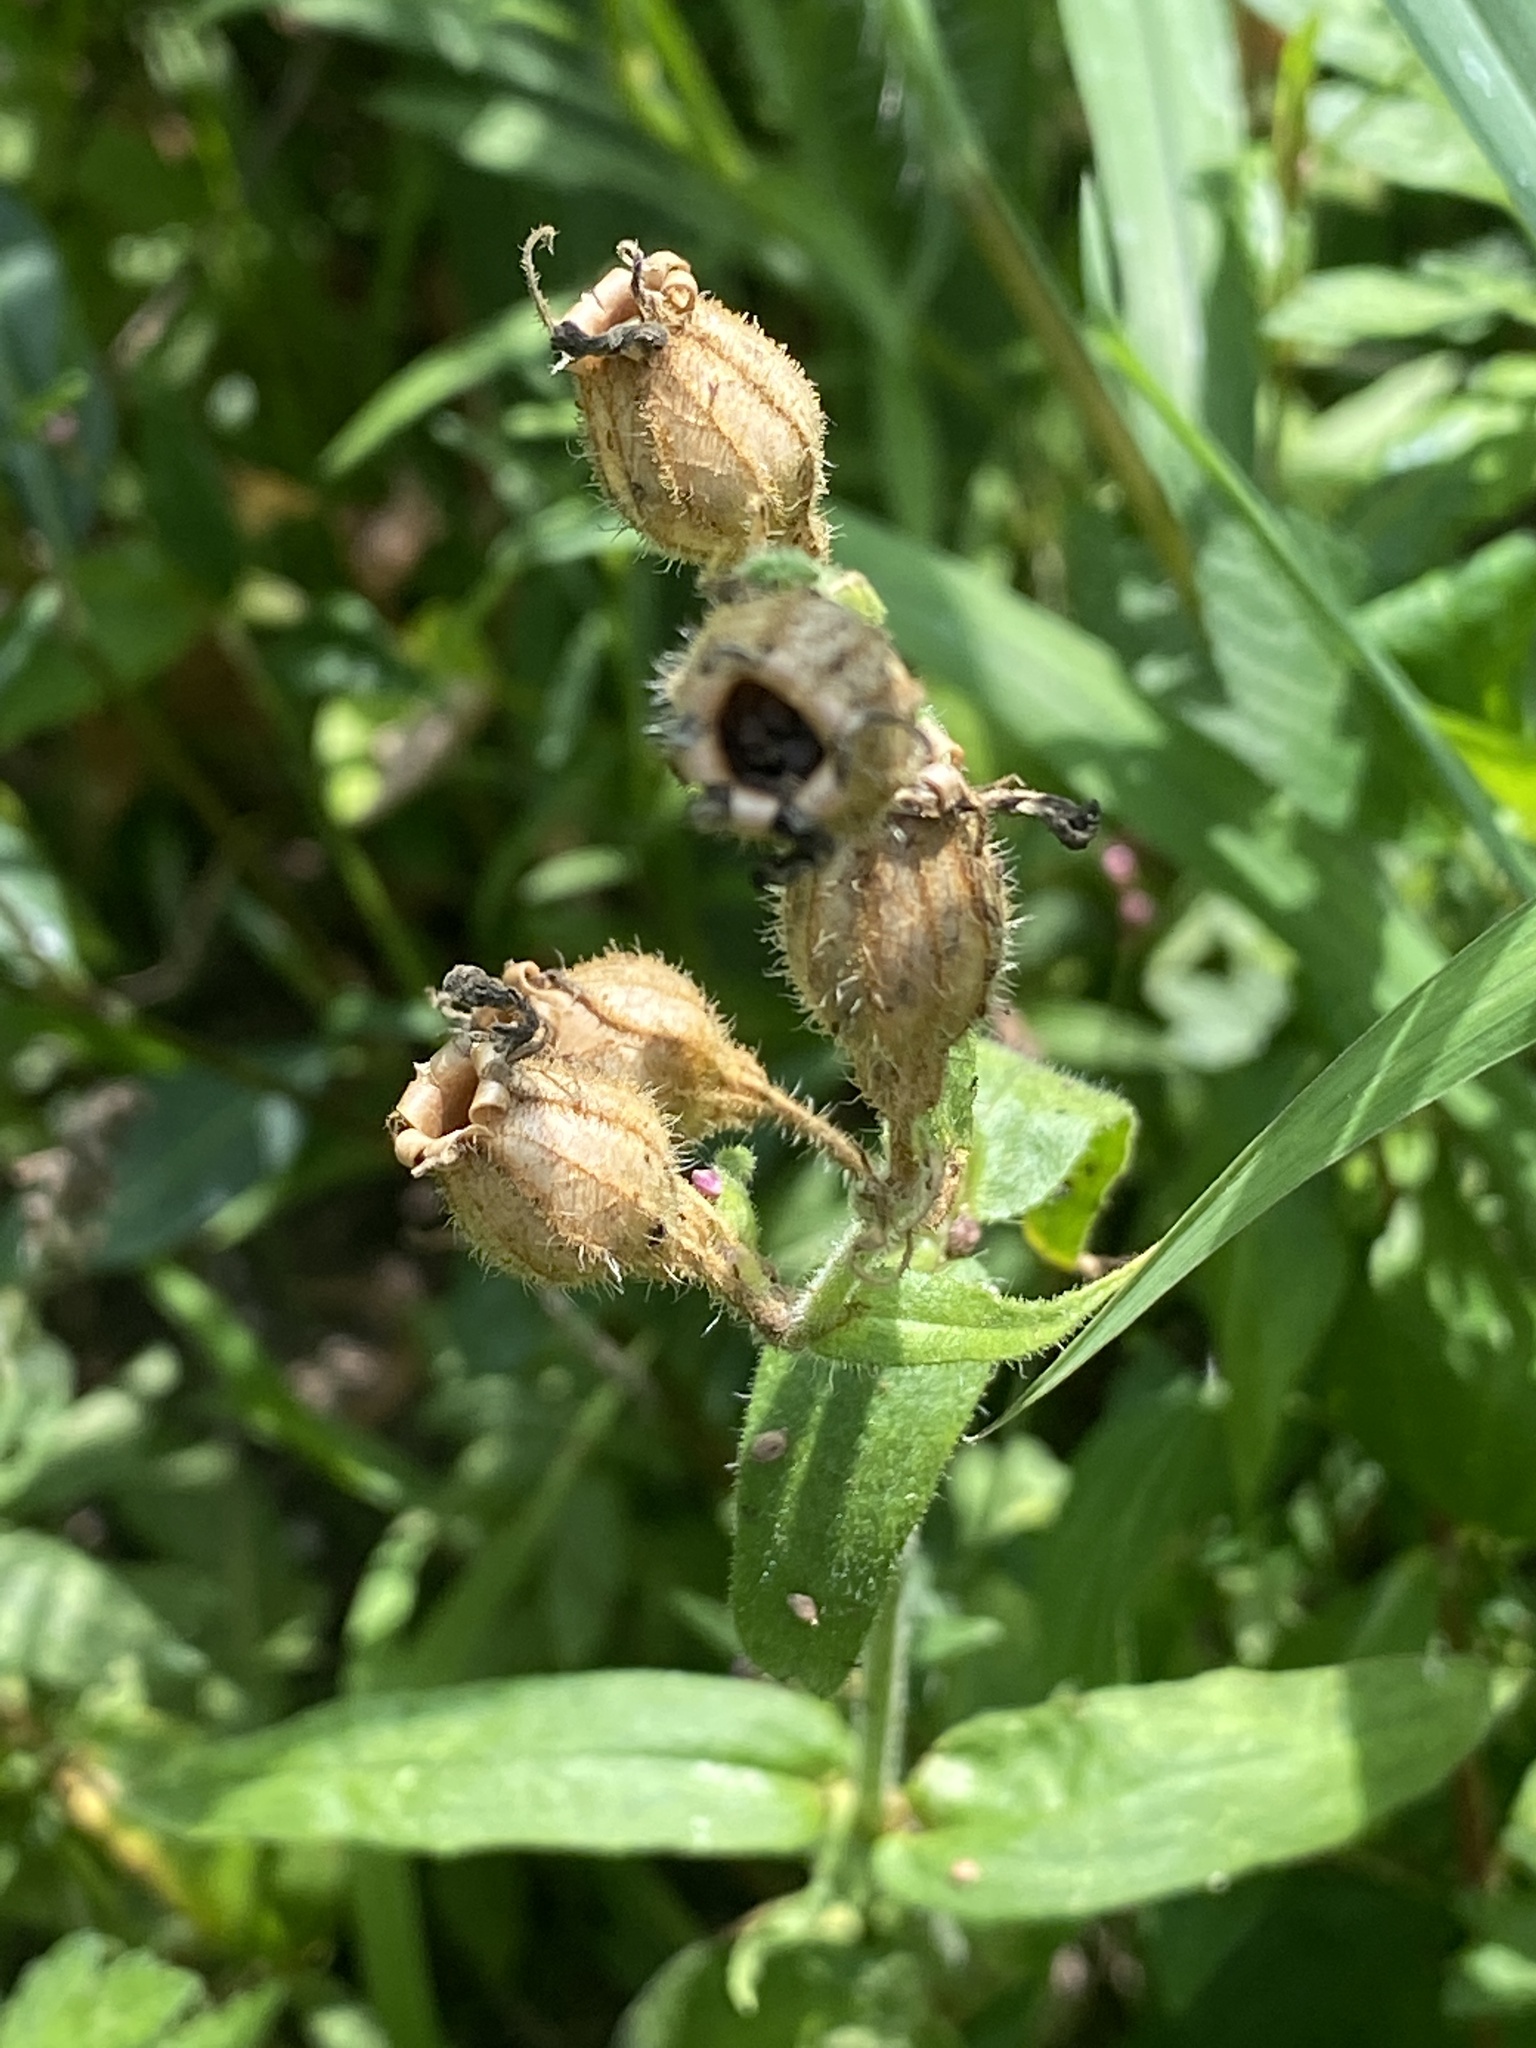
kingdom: Plantae
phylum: Tracheophyta
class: Magnoliopsida
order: Caryophyllales
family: Caryophyllaceae
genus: Silene
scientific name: Silene latifolia
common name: White campion
